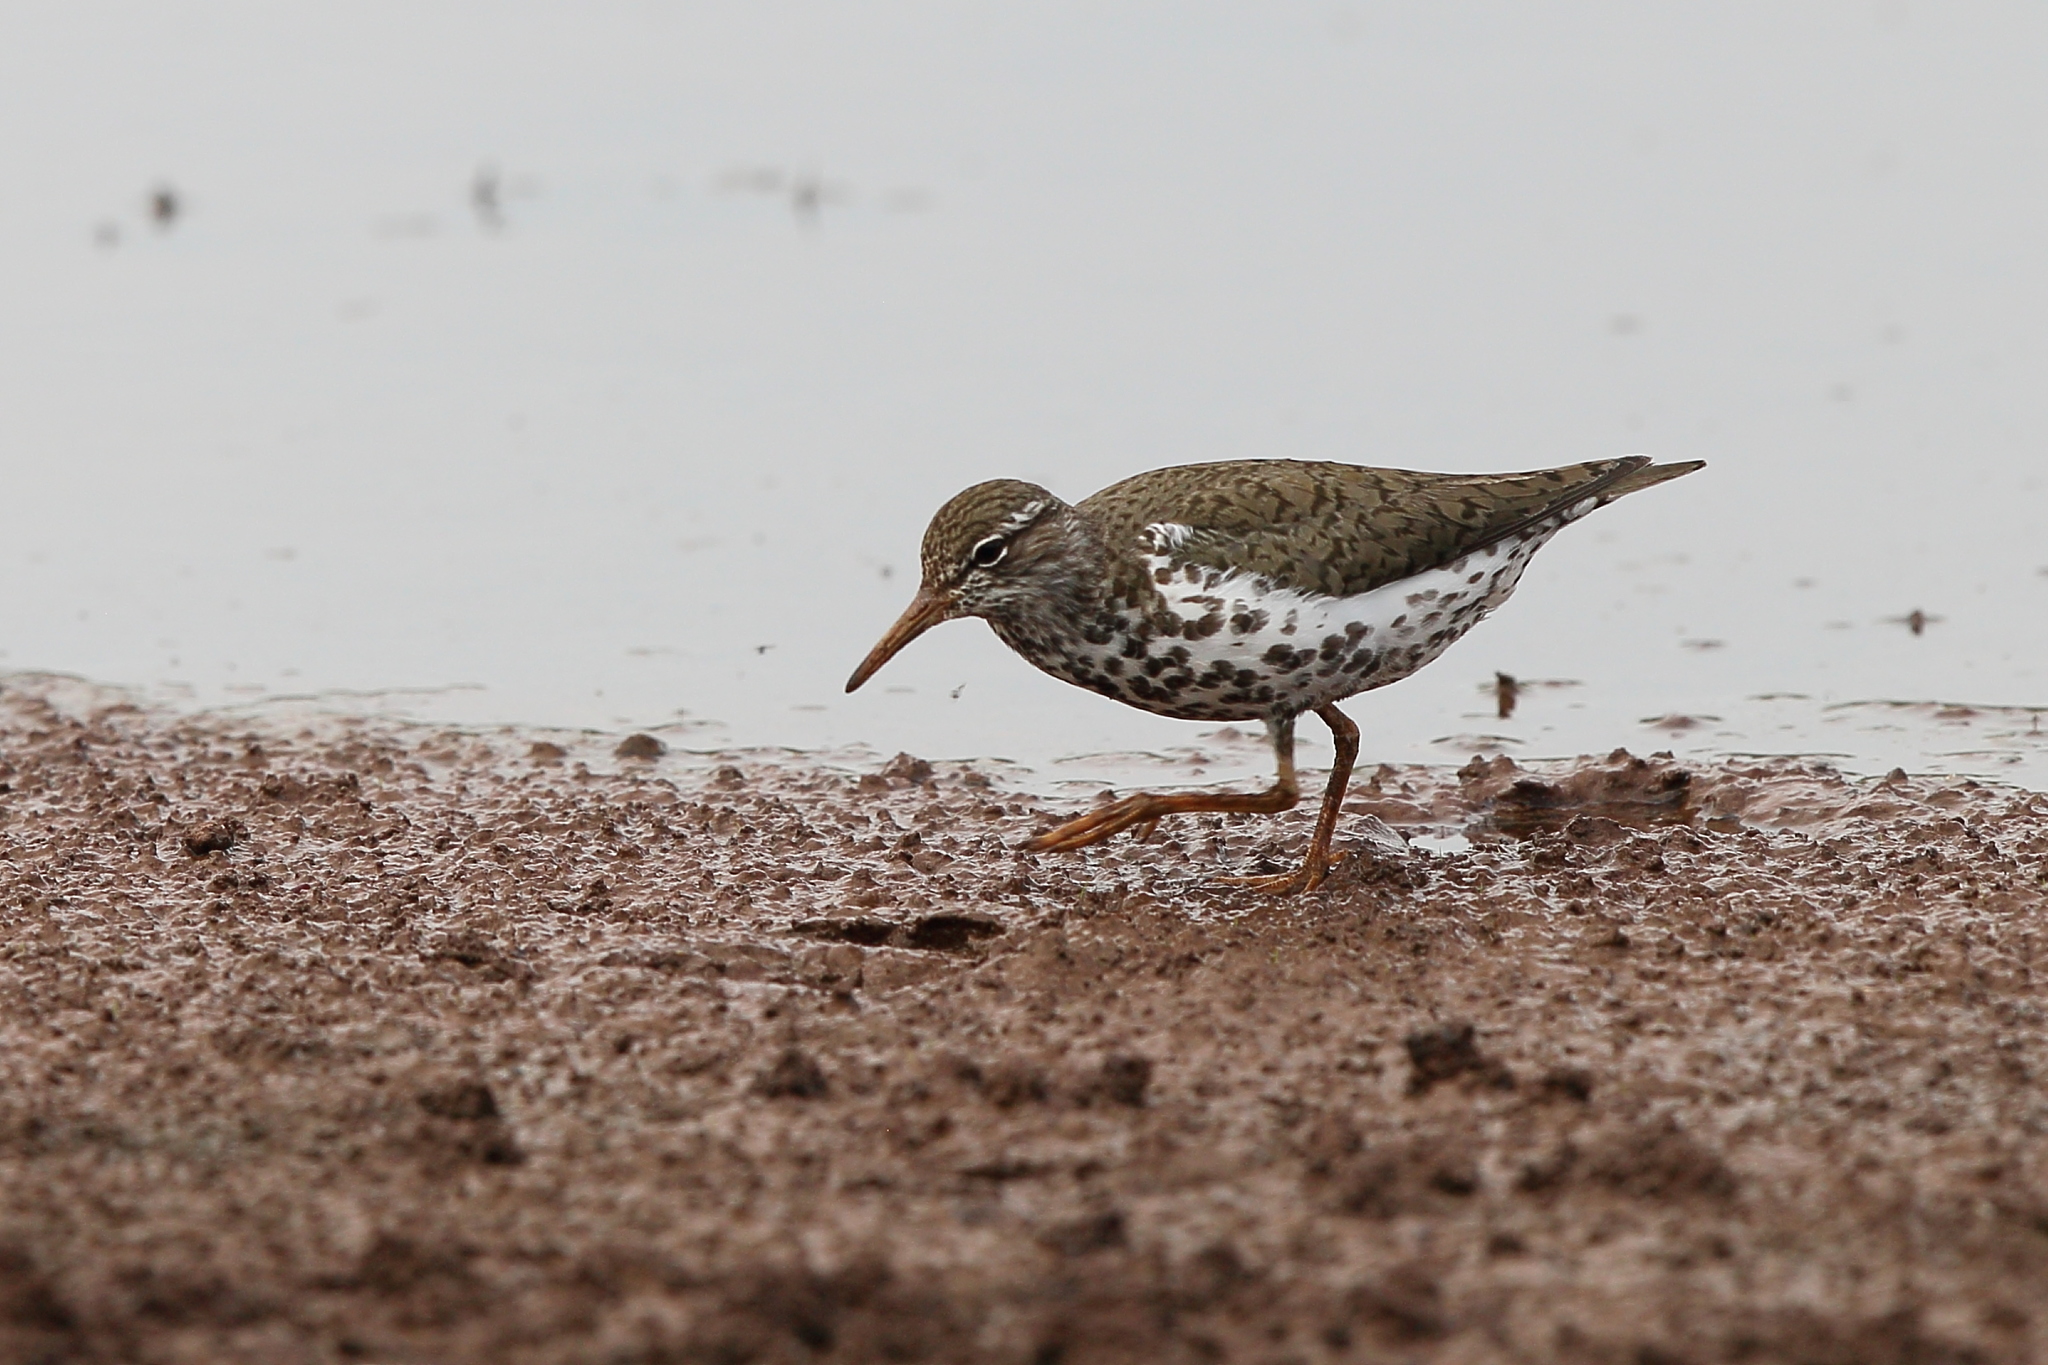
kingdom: Animalia
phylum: Chordata
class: Aves
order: Charadriiformes
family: Scolopacidae
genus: Actitis
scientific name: Actitis macularius
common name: Spotted sandpiper
